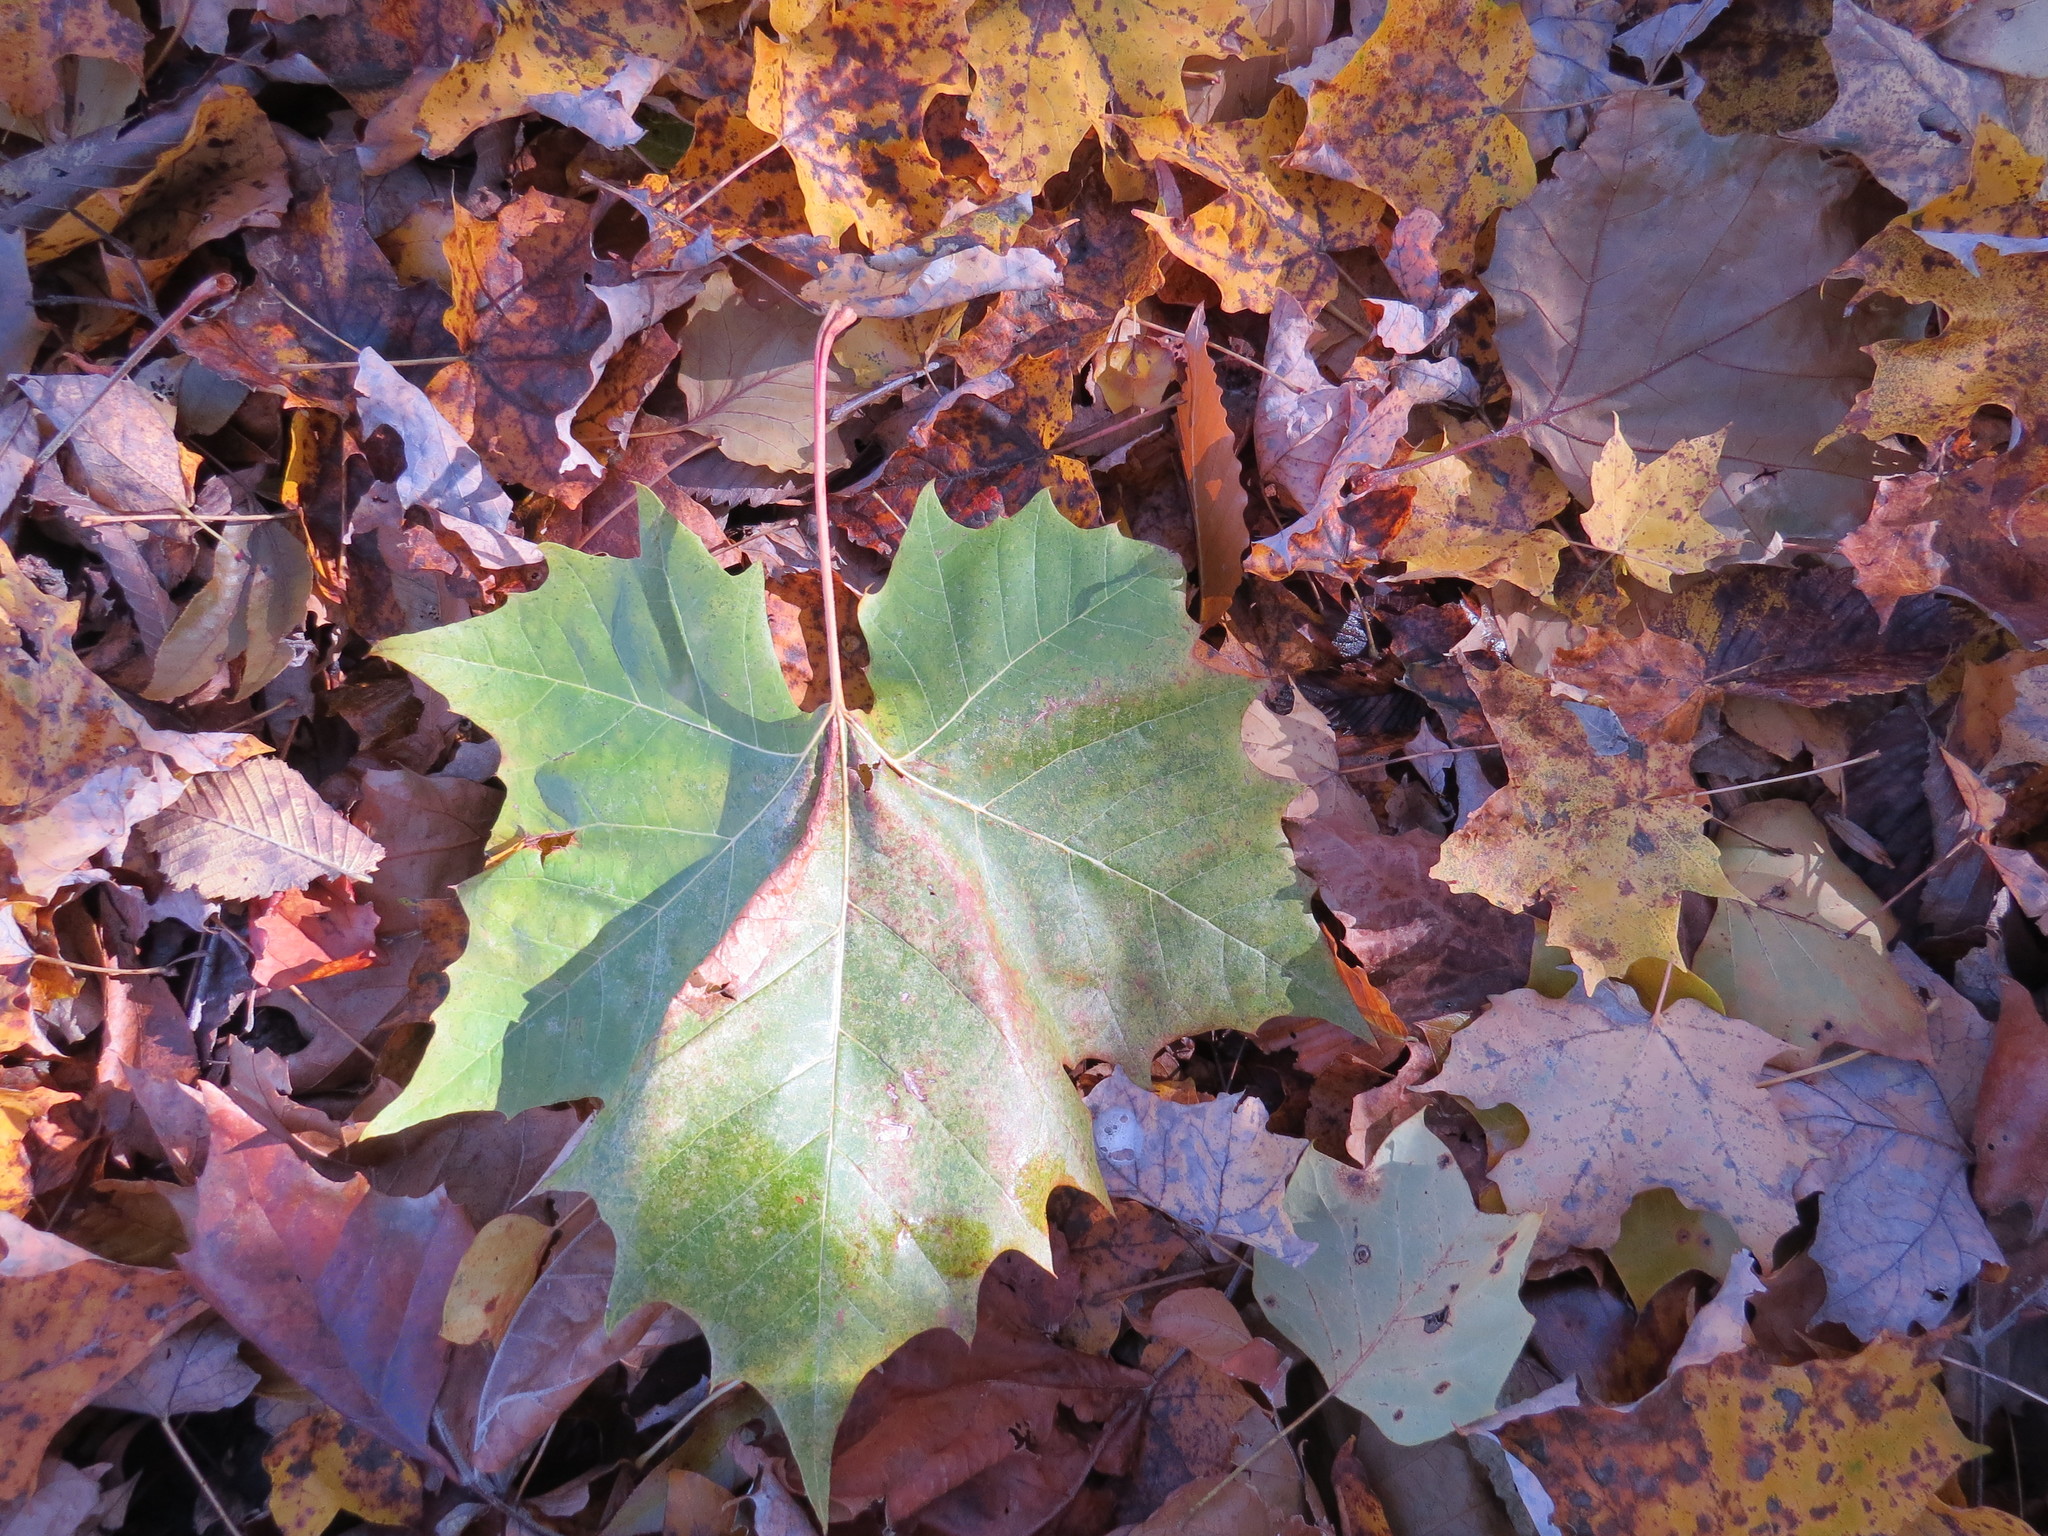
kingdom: Plantae
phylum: Tracheophyta
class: Magnoliopsida
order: Proteales
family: Platanaceae
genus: Platanus
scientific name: Platanus occidentalis
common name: American sycamore
